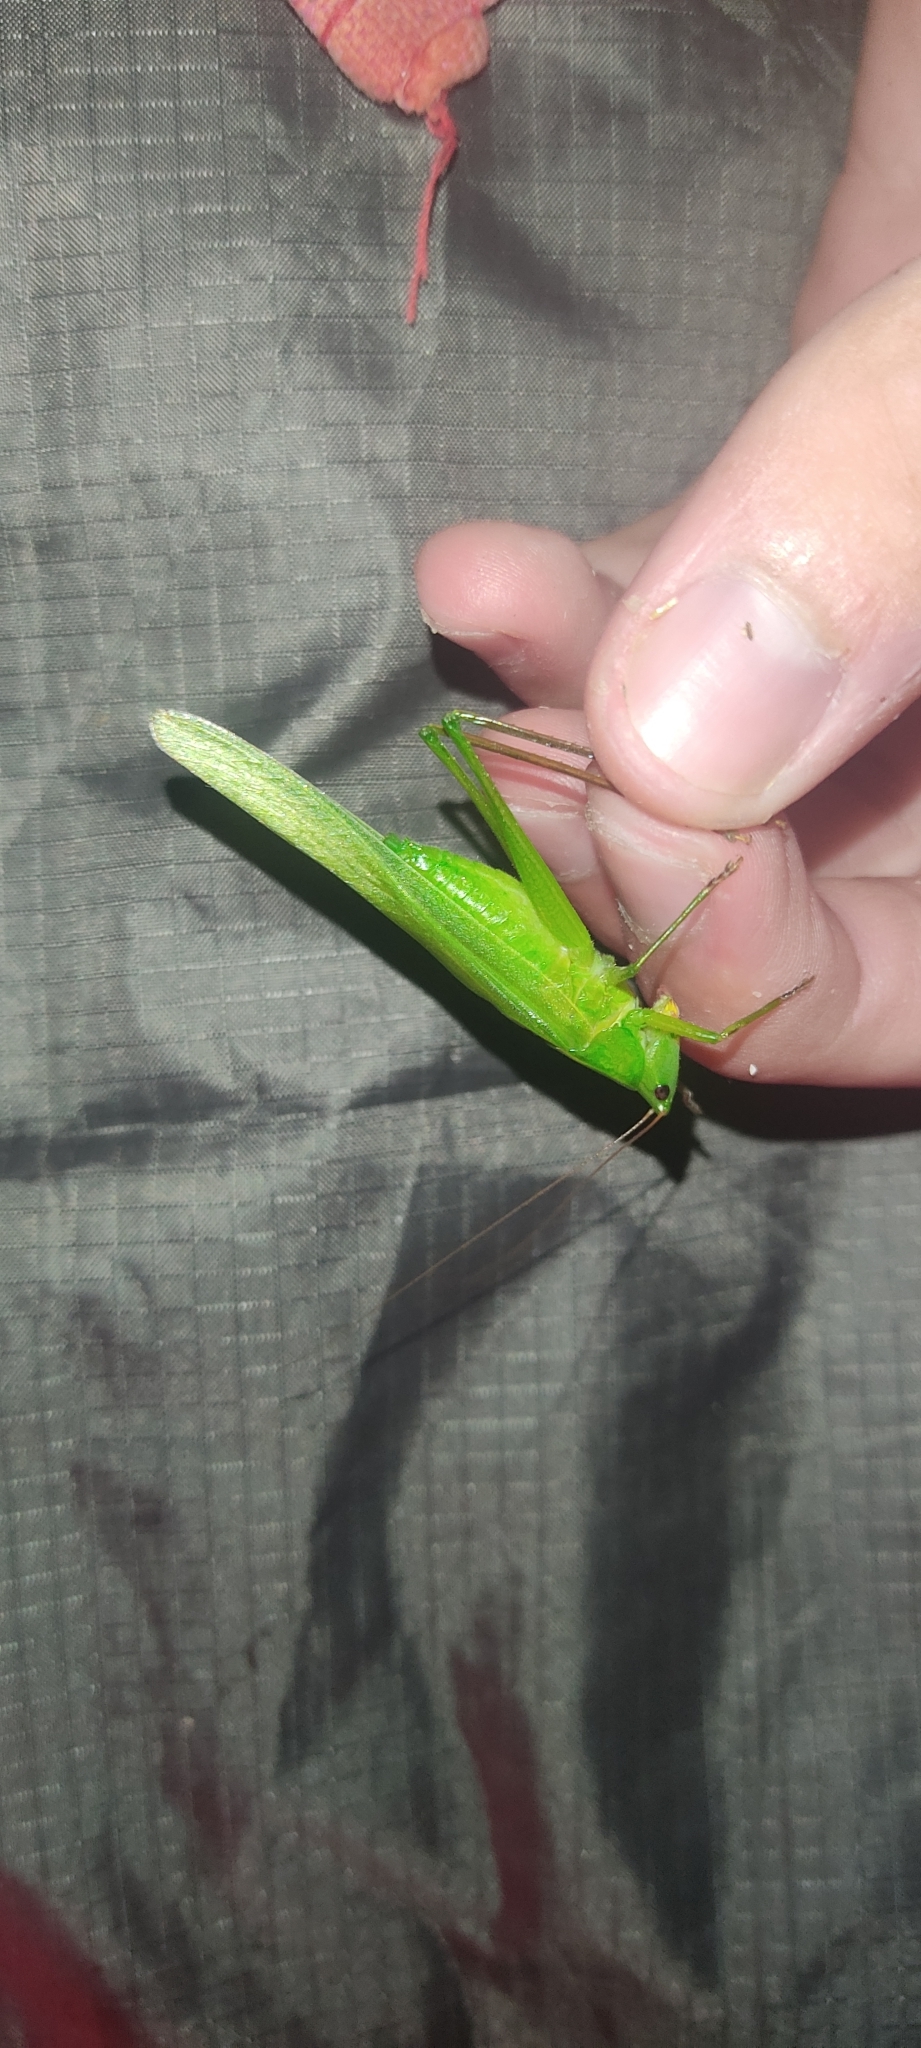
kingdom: Animalia
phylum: Arthropoda
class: Insecta
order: Orthoptera
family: Tettigoniidae
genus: Ruspolia
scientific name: Ruspolia nitidula
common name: Large conehead
